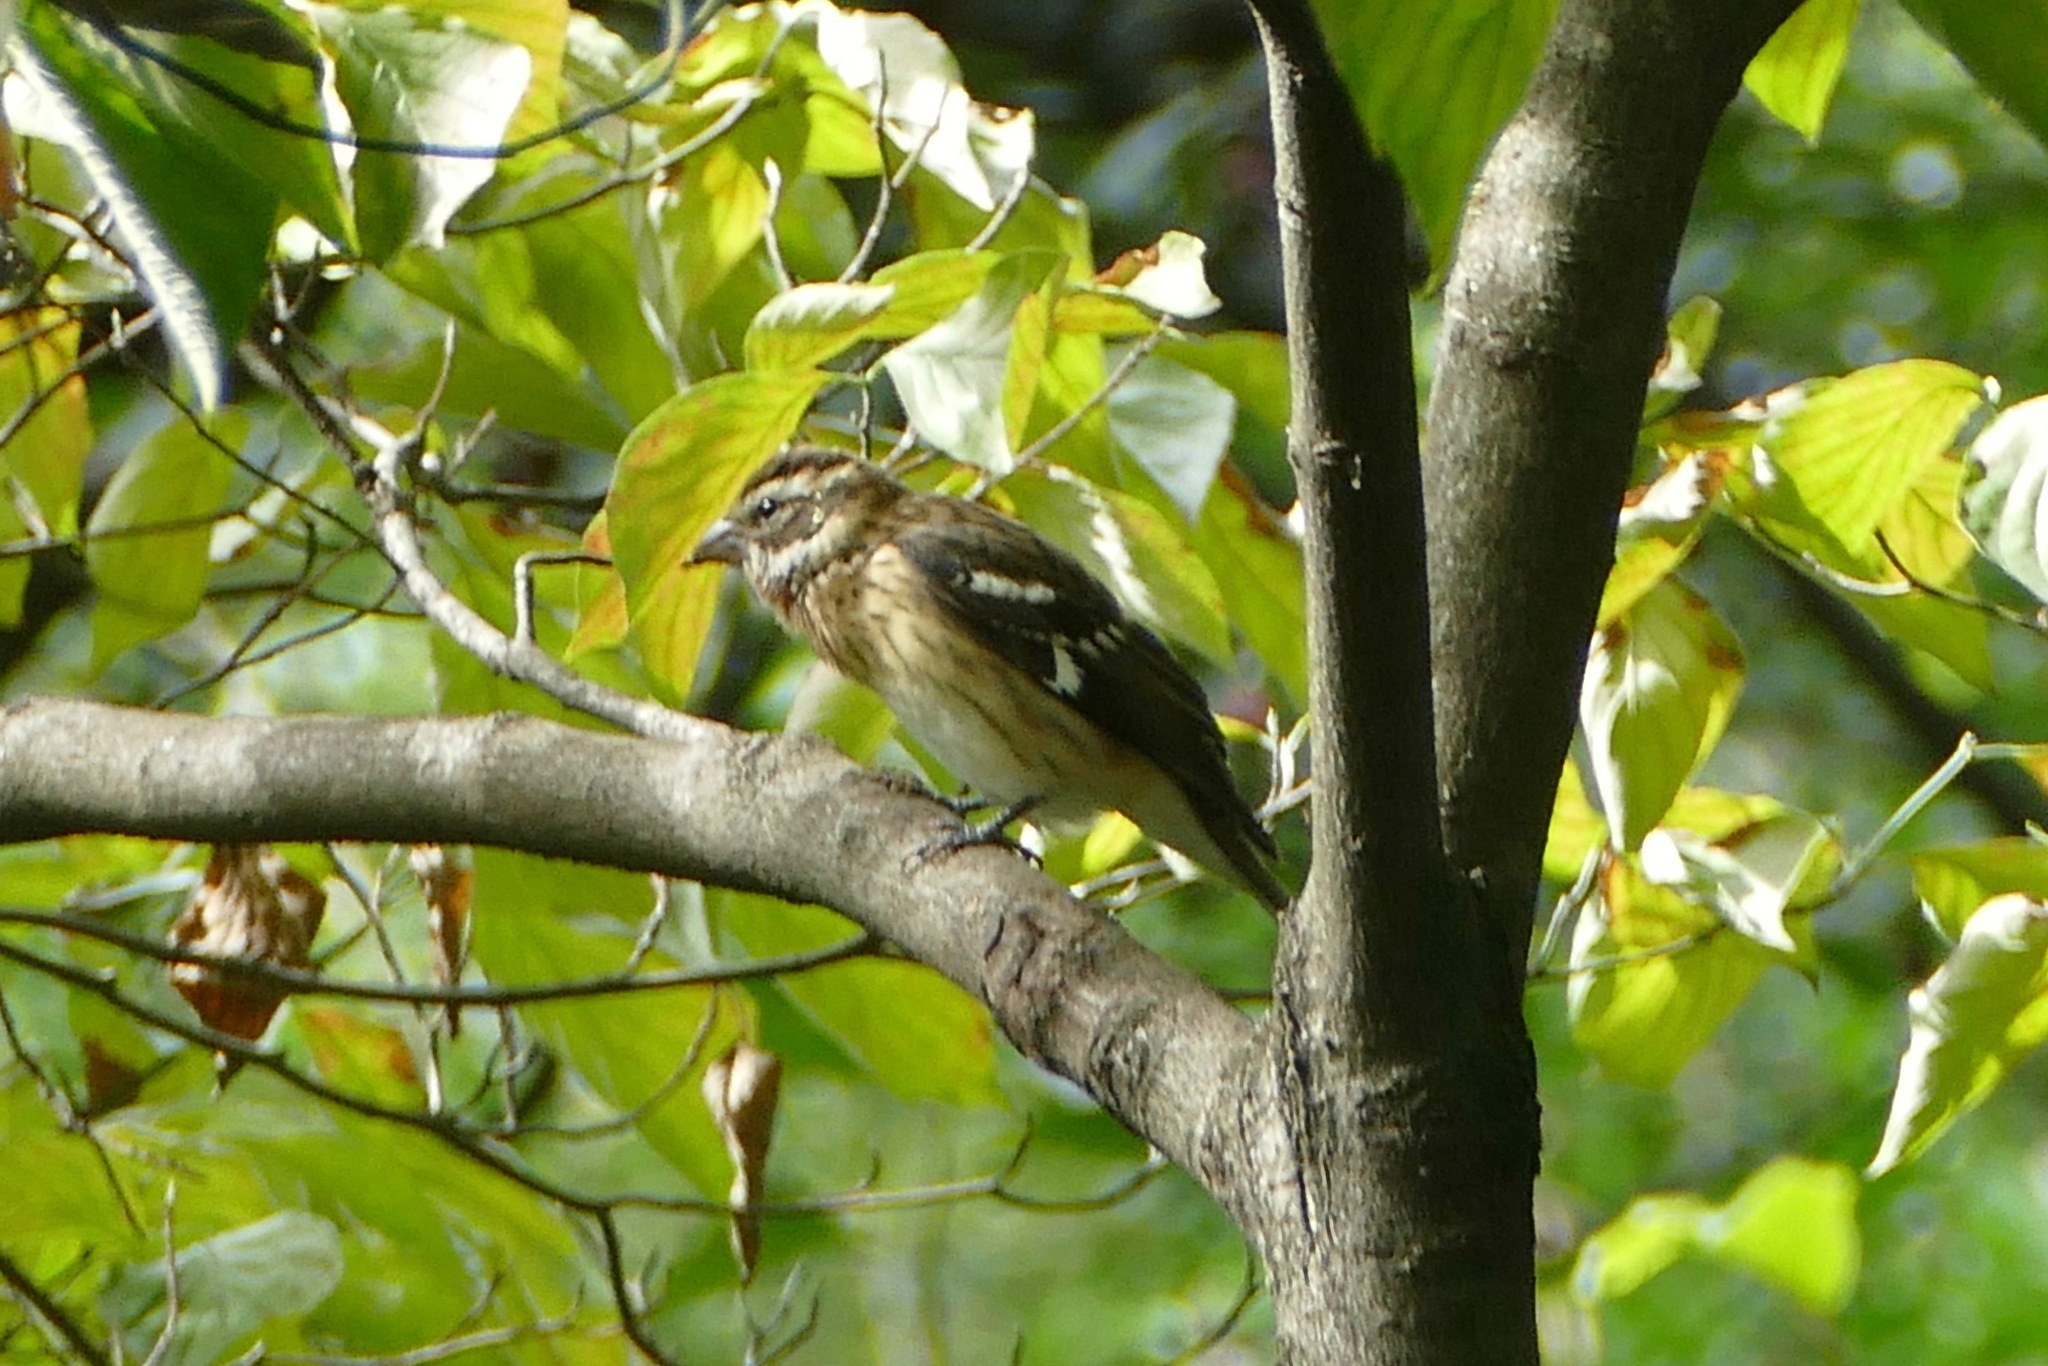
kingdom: Animalia
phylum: Chordata
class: Aves
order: Passeriformes
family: Cardinalidae
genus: Pheucticus
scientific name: Pheucticus ludovicianus
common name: Rose-breasted grosbeak
